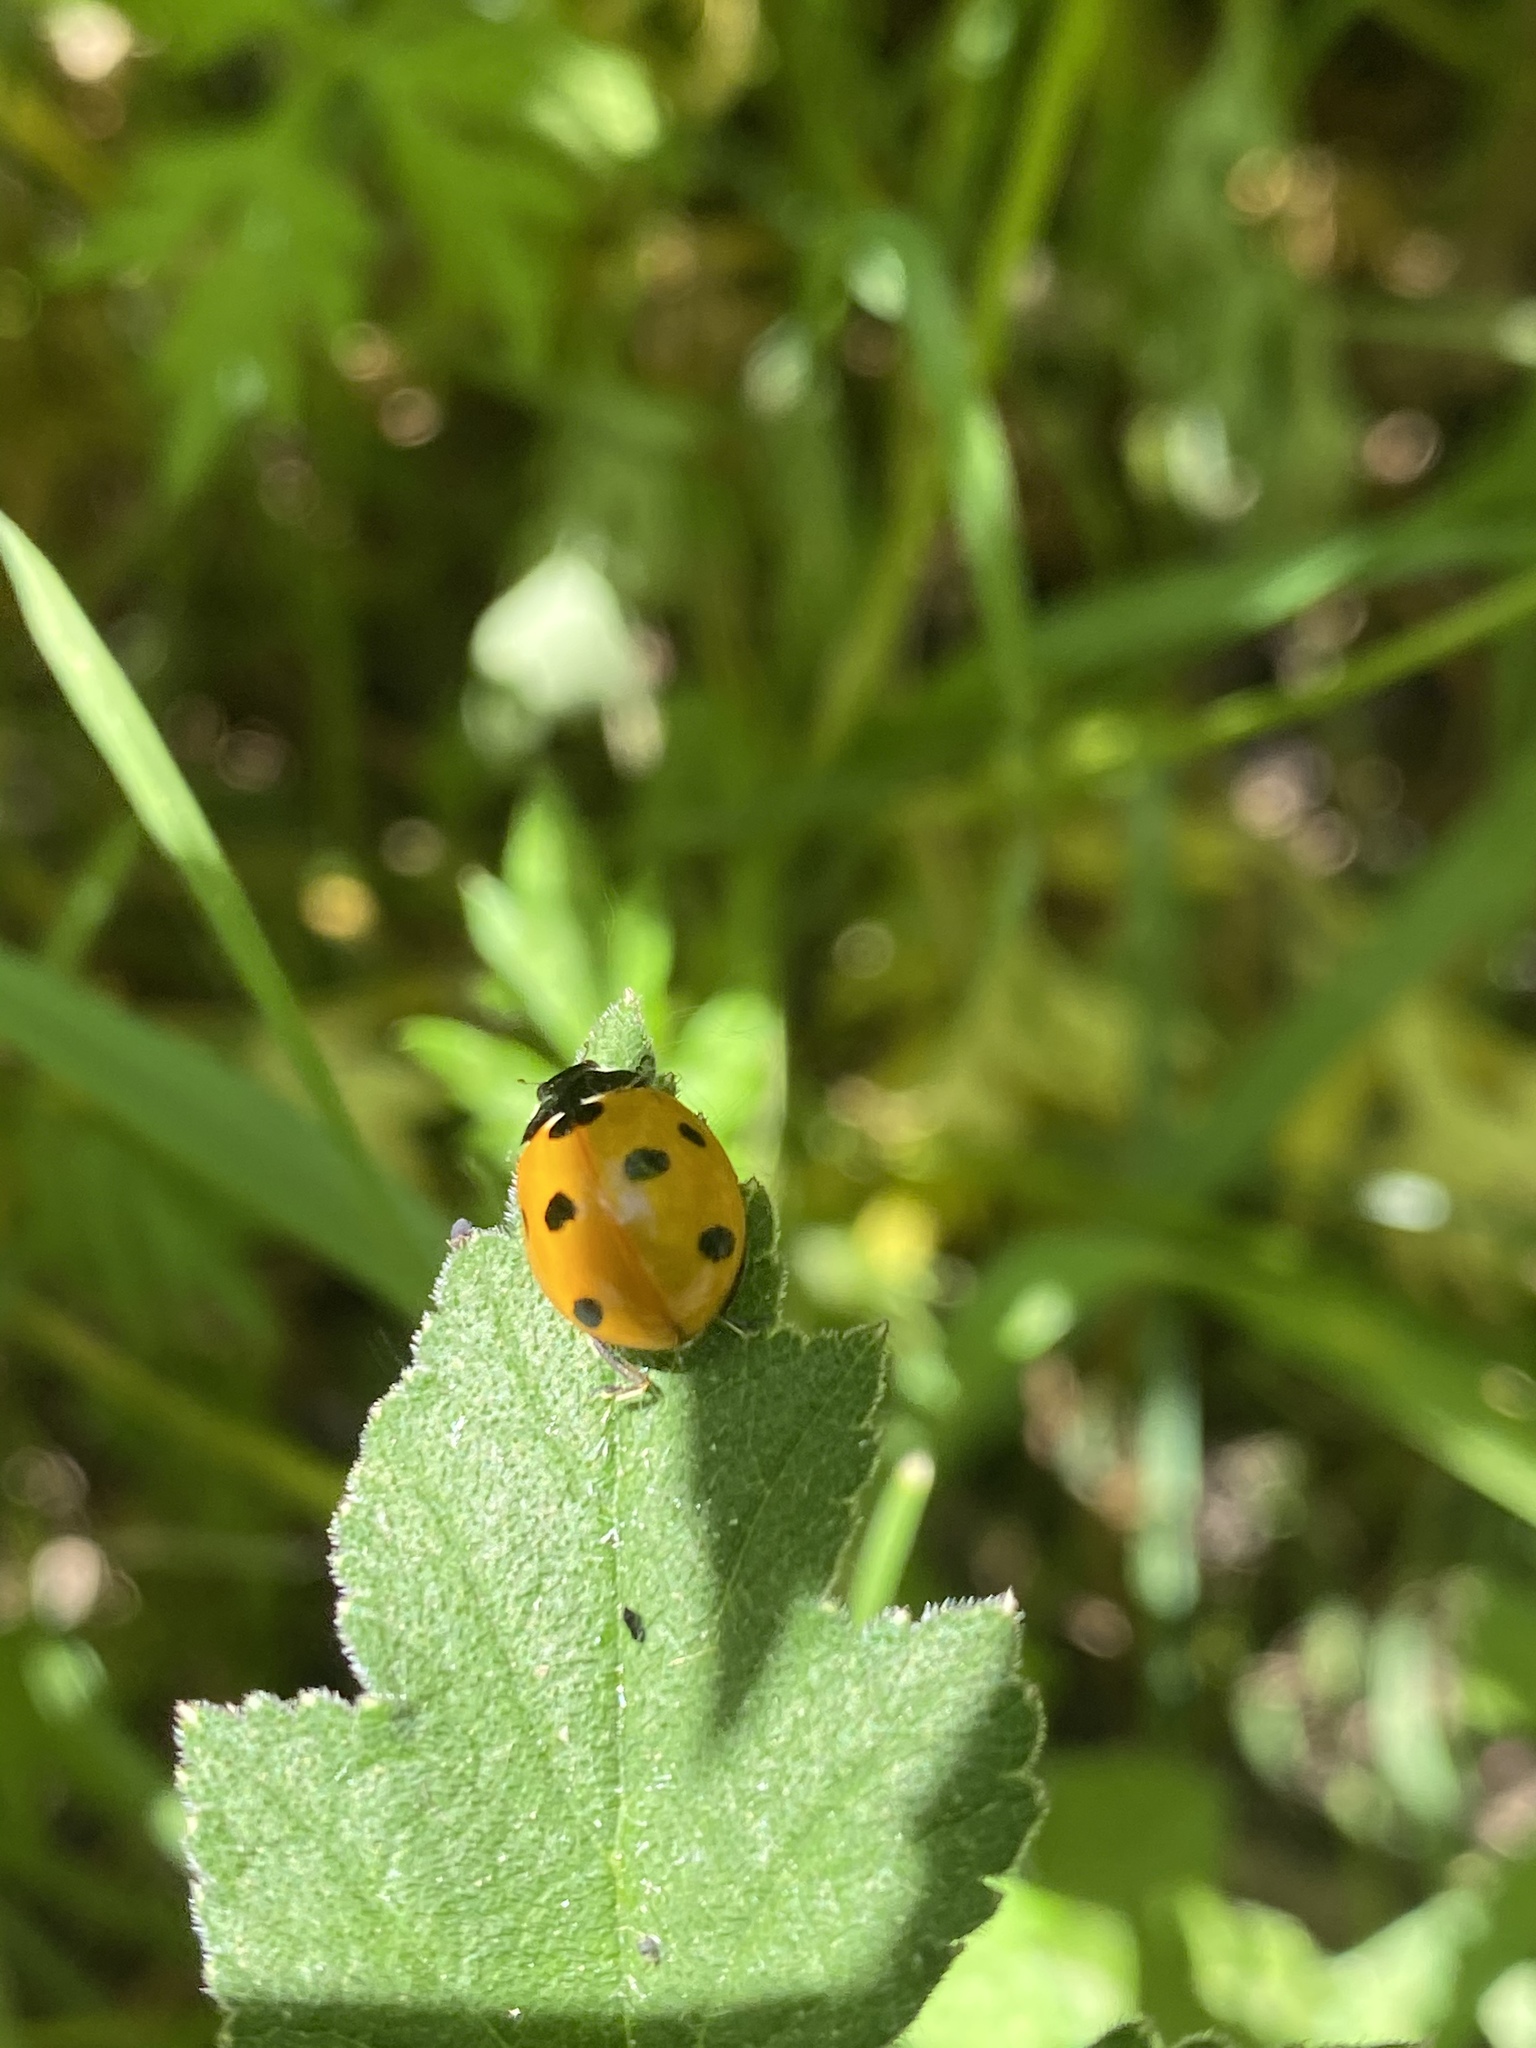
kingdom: Animalia
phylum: Arthropoda
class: Insecta
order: Coleoptera
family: Coccinellidae
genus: Coccinella
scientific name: Coccinella septempunctata
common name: Sevenspotted lady beetle
